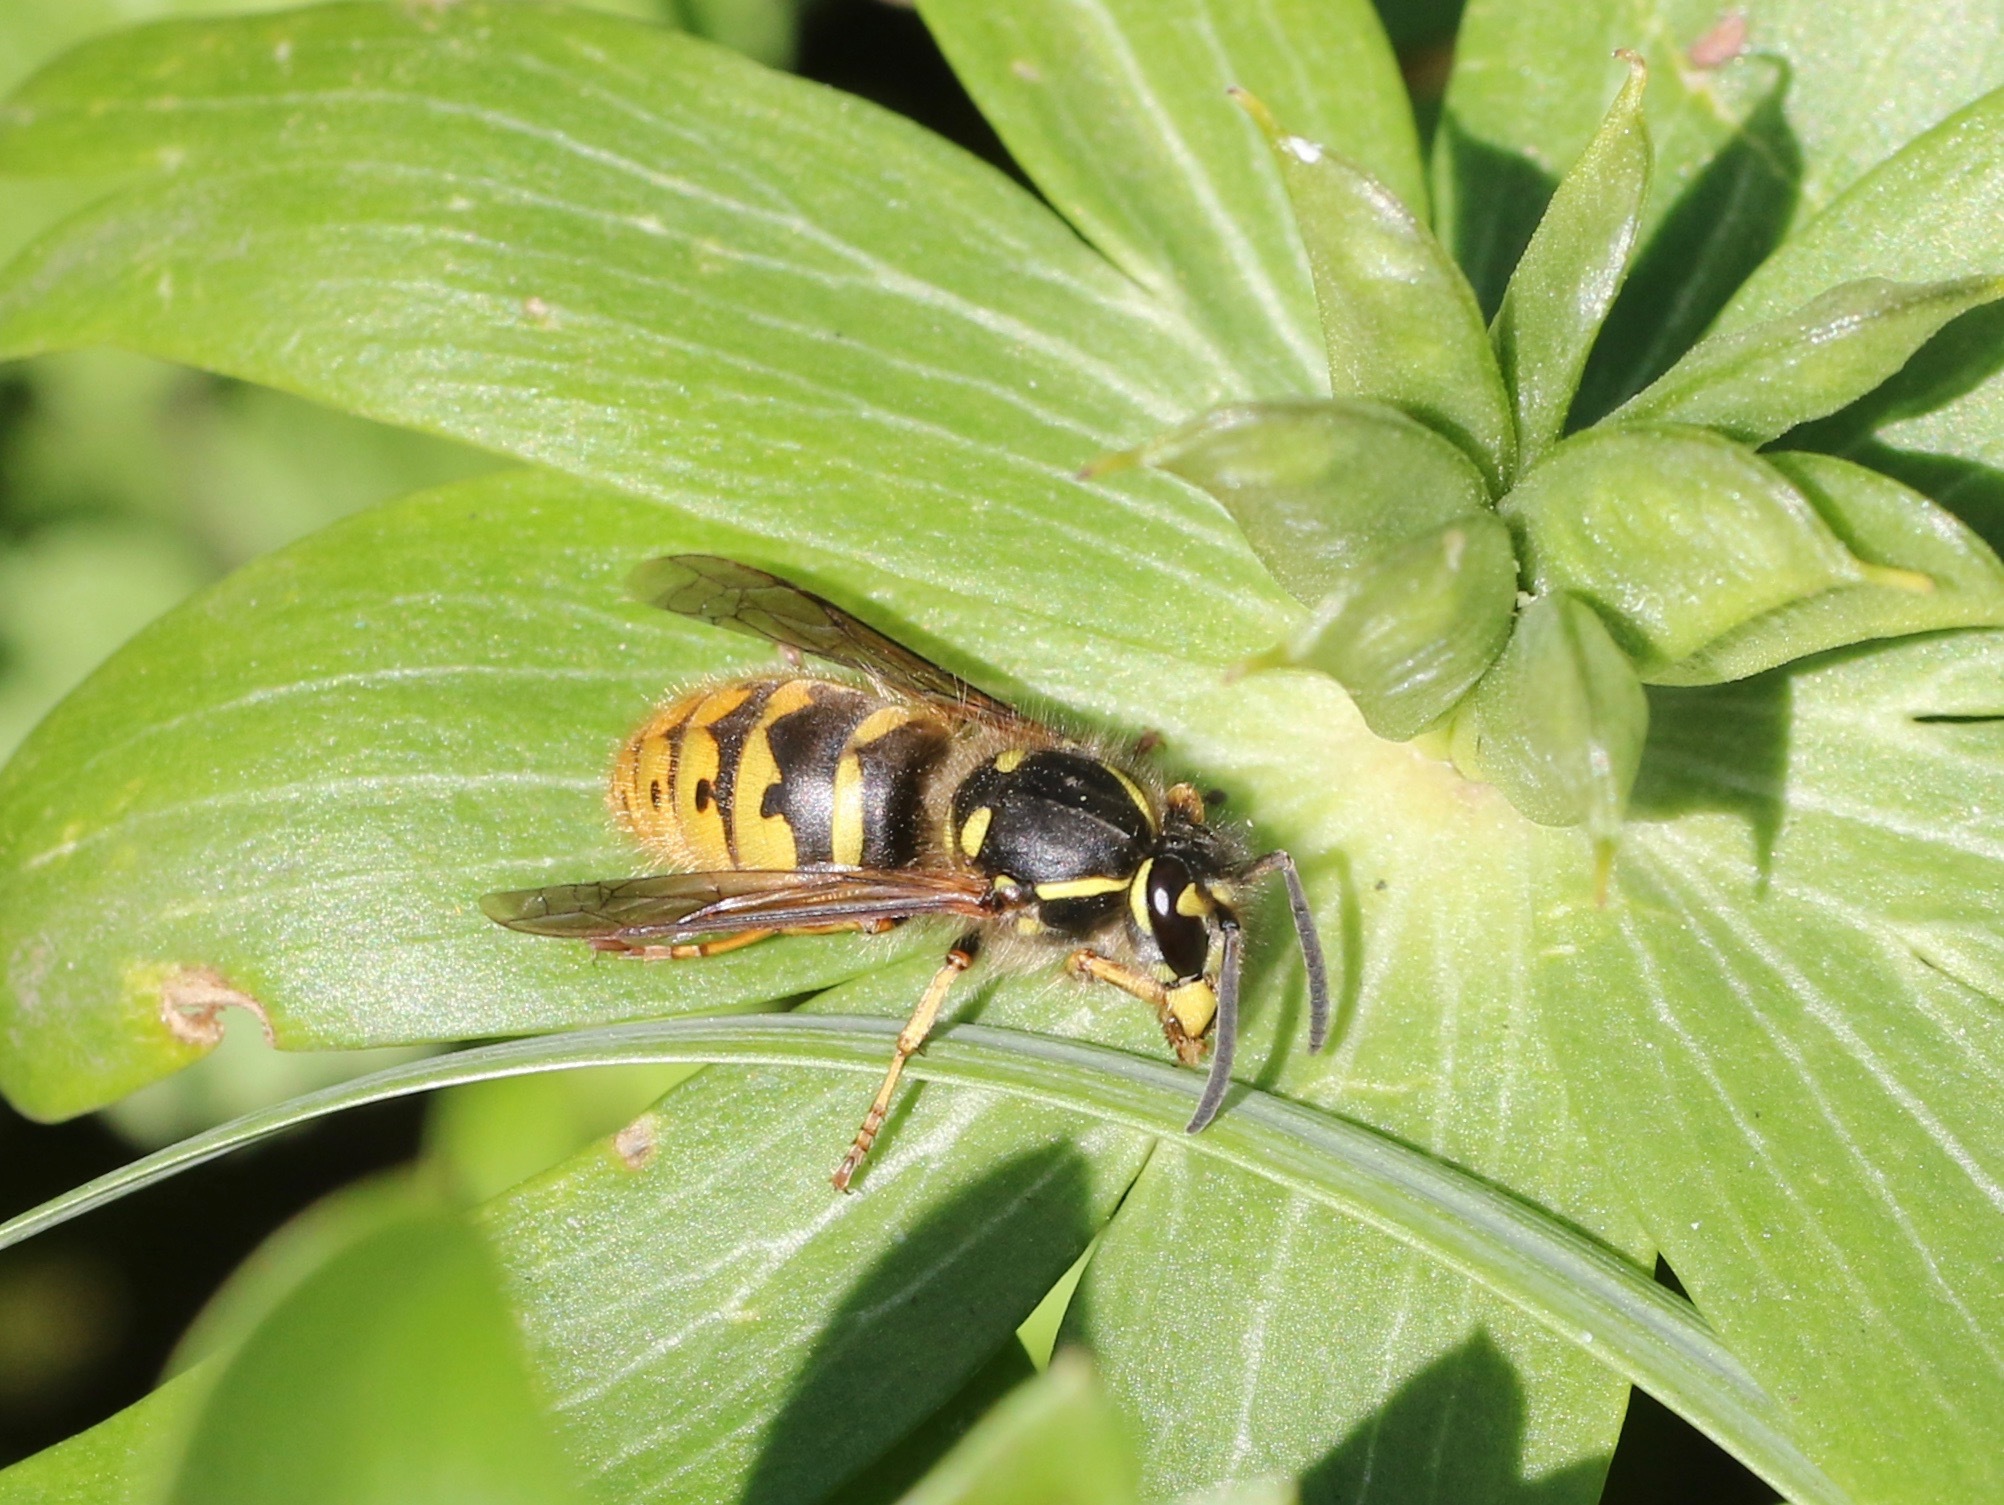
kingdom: Animalia
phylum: Arthropoda
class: Insecta
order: Hymenoptera
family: Vespidae
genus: Vespula
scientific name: Vespula vulgaris
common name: Common wasp
